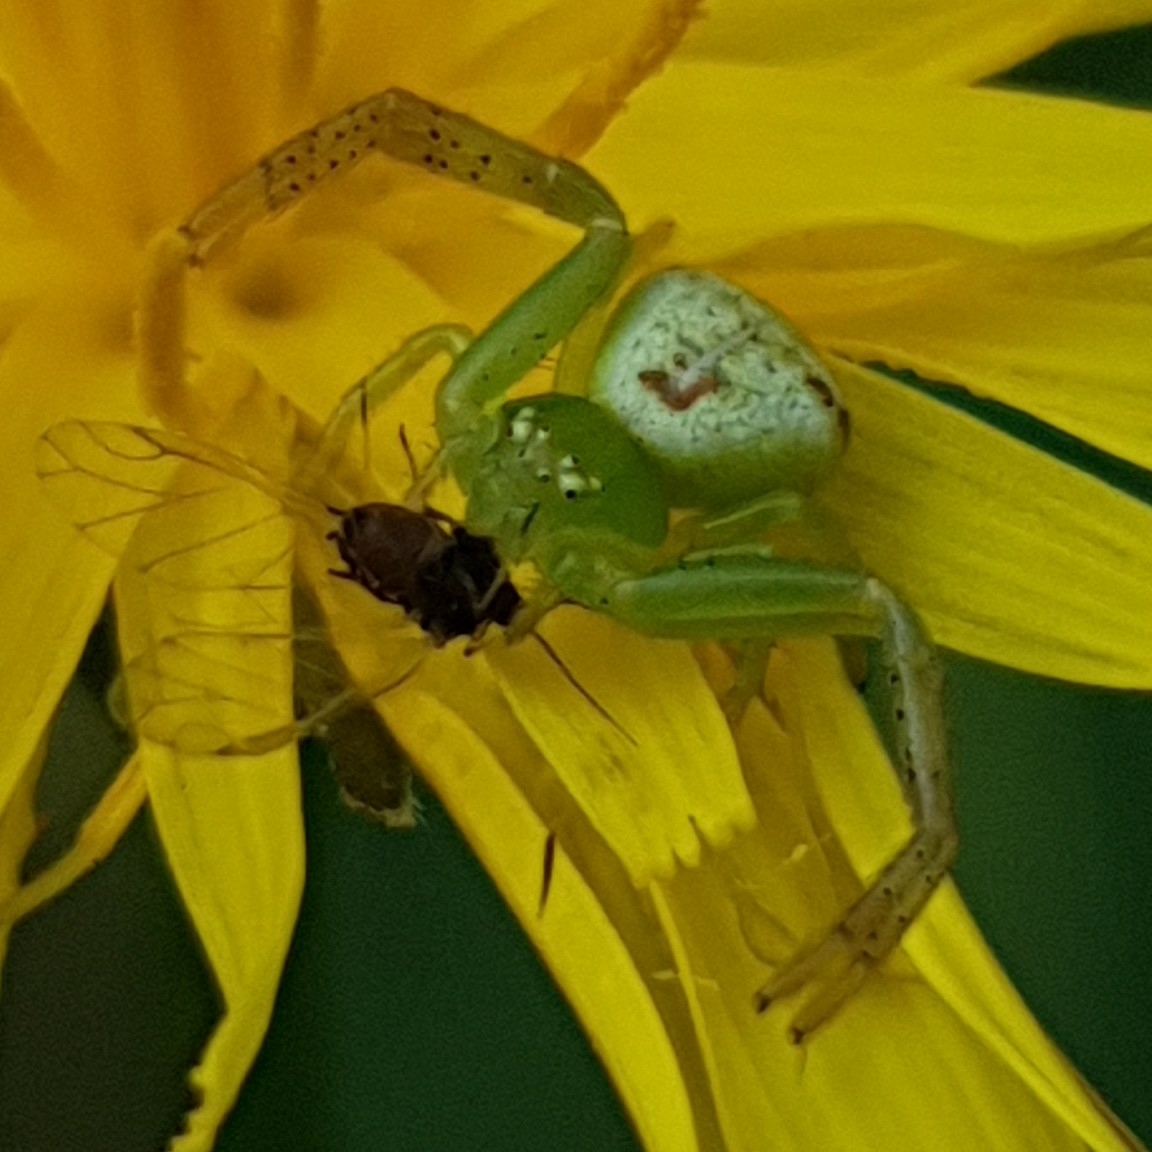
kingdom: Animalia
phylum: Arthropoda
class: Arachnida
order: Araneae
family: Thomisidae
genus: Ebrechtella
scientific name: Ebrechtella tricuspidata
